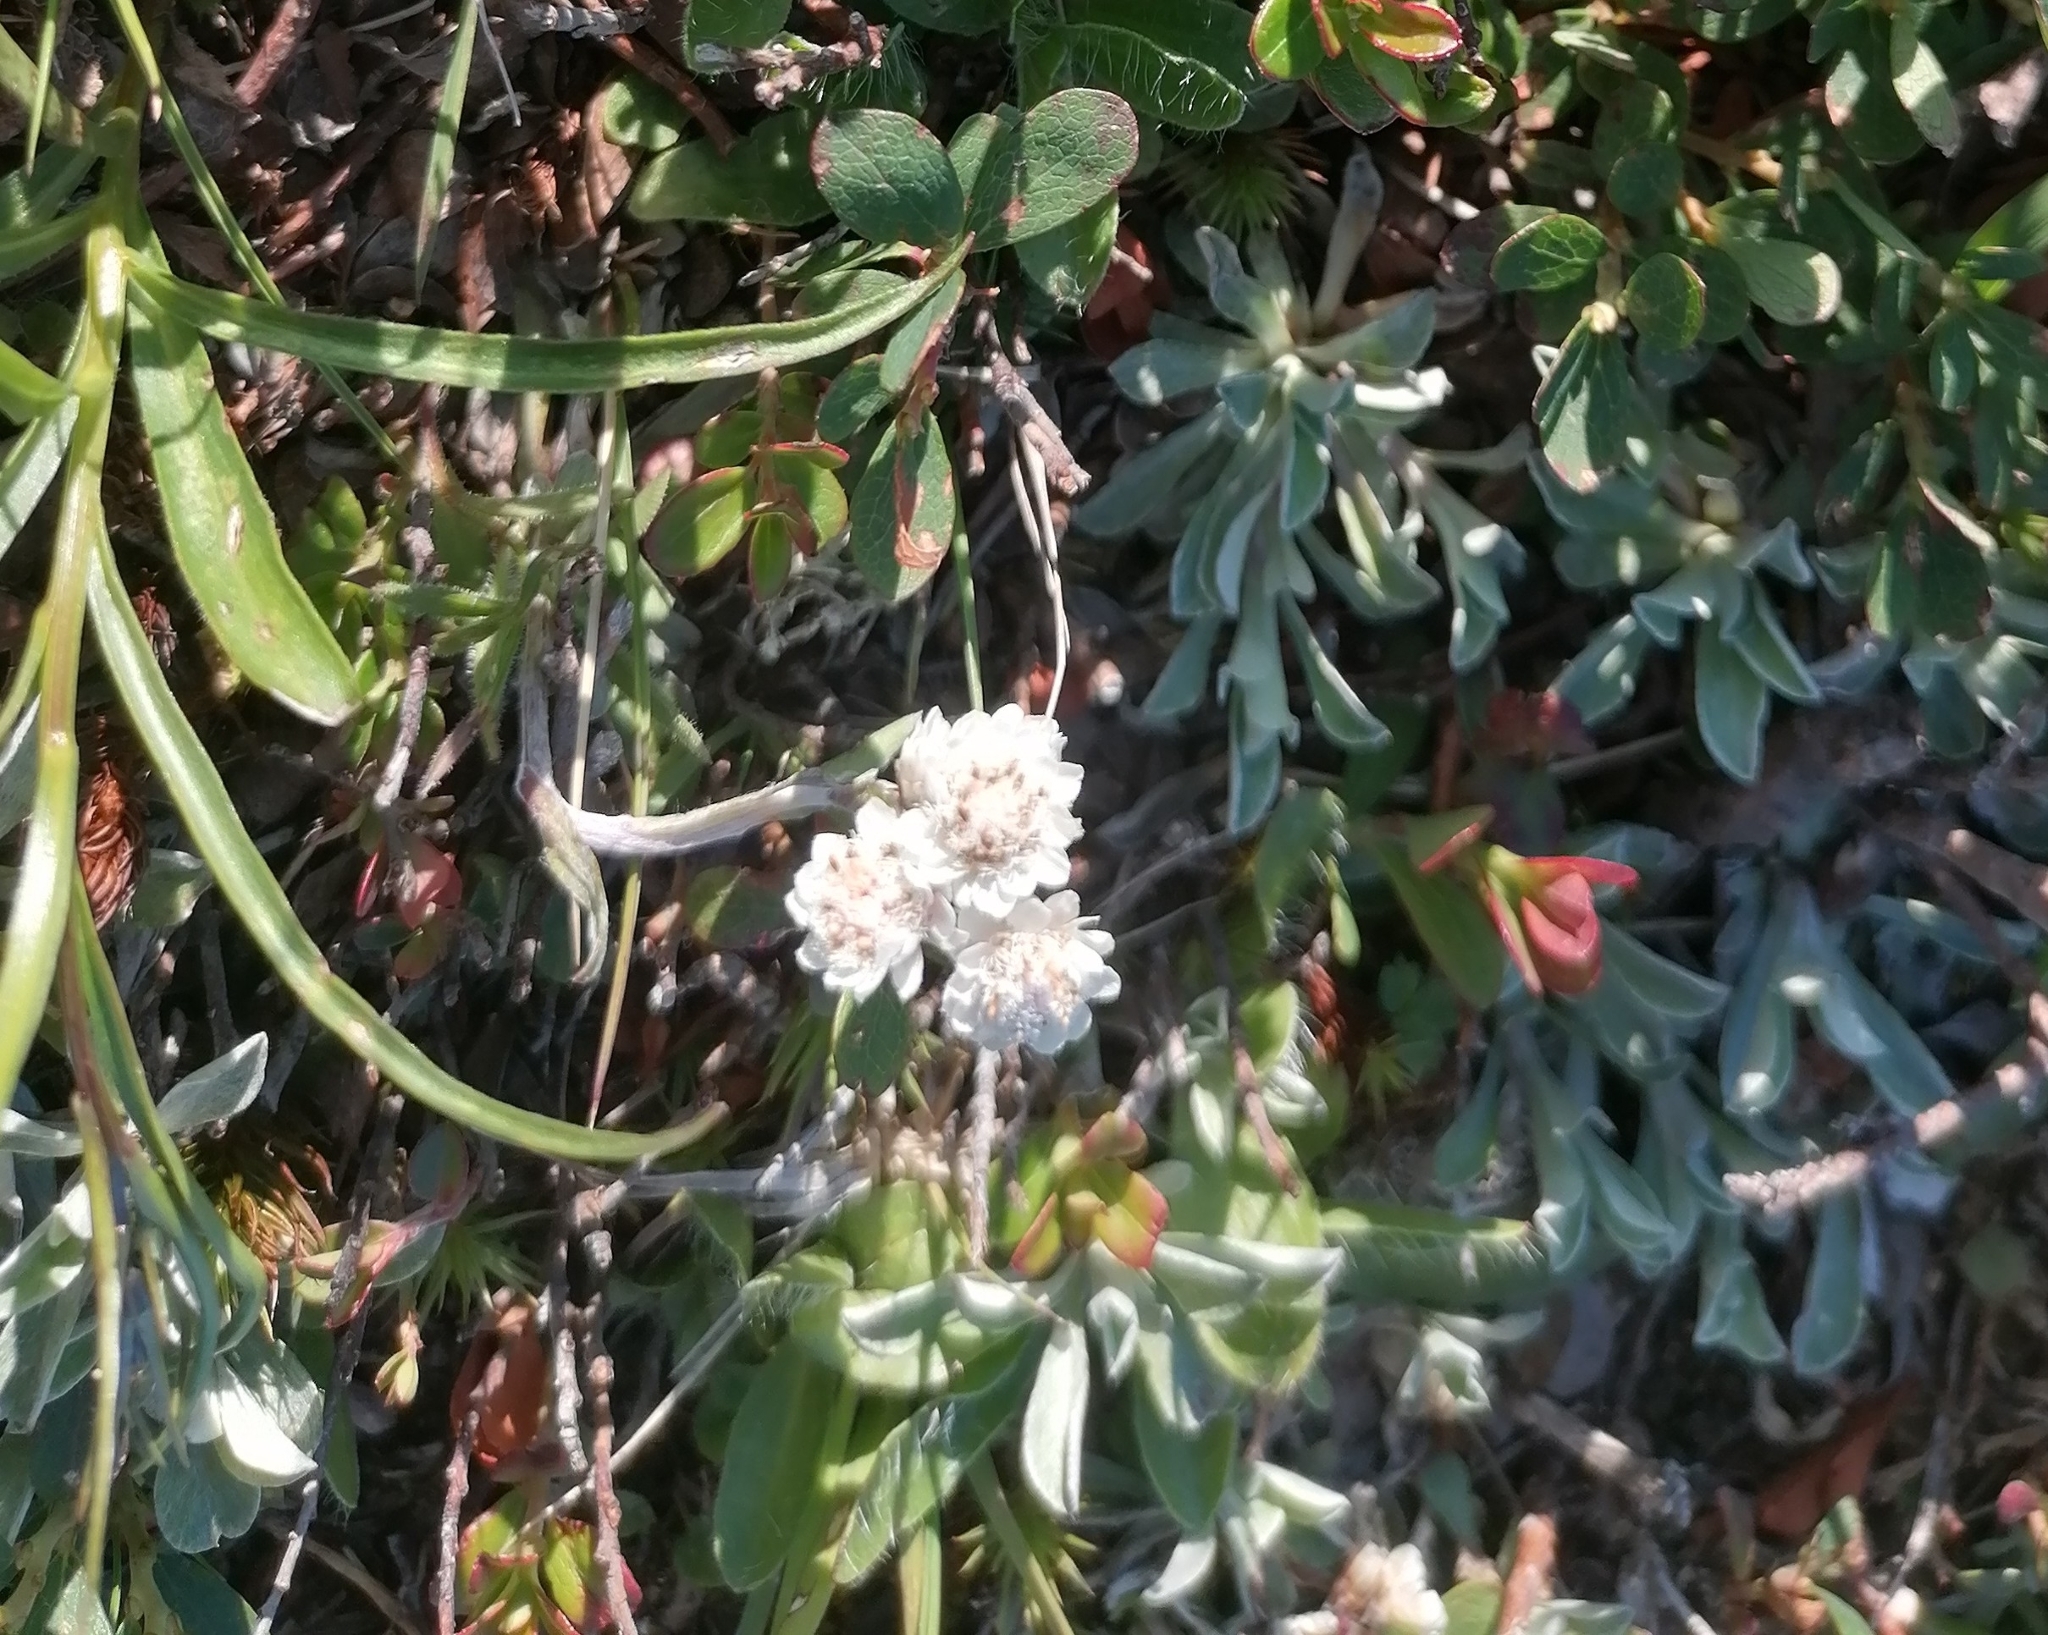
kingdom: Plantae
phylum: Tracheophyta
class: Magnoliopsida
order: Asterales
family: Asteraceae
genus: Antennaria
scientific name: Antennaria dioica
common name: Mountain everlasting
